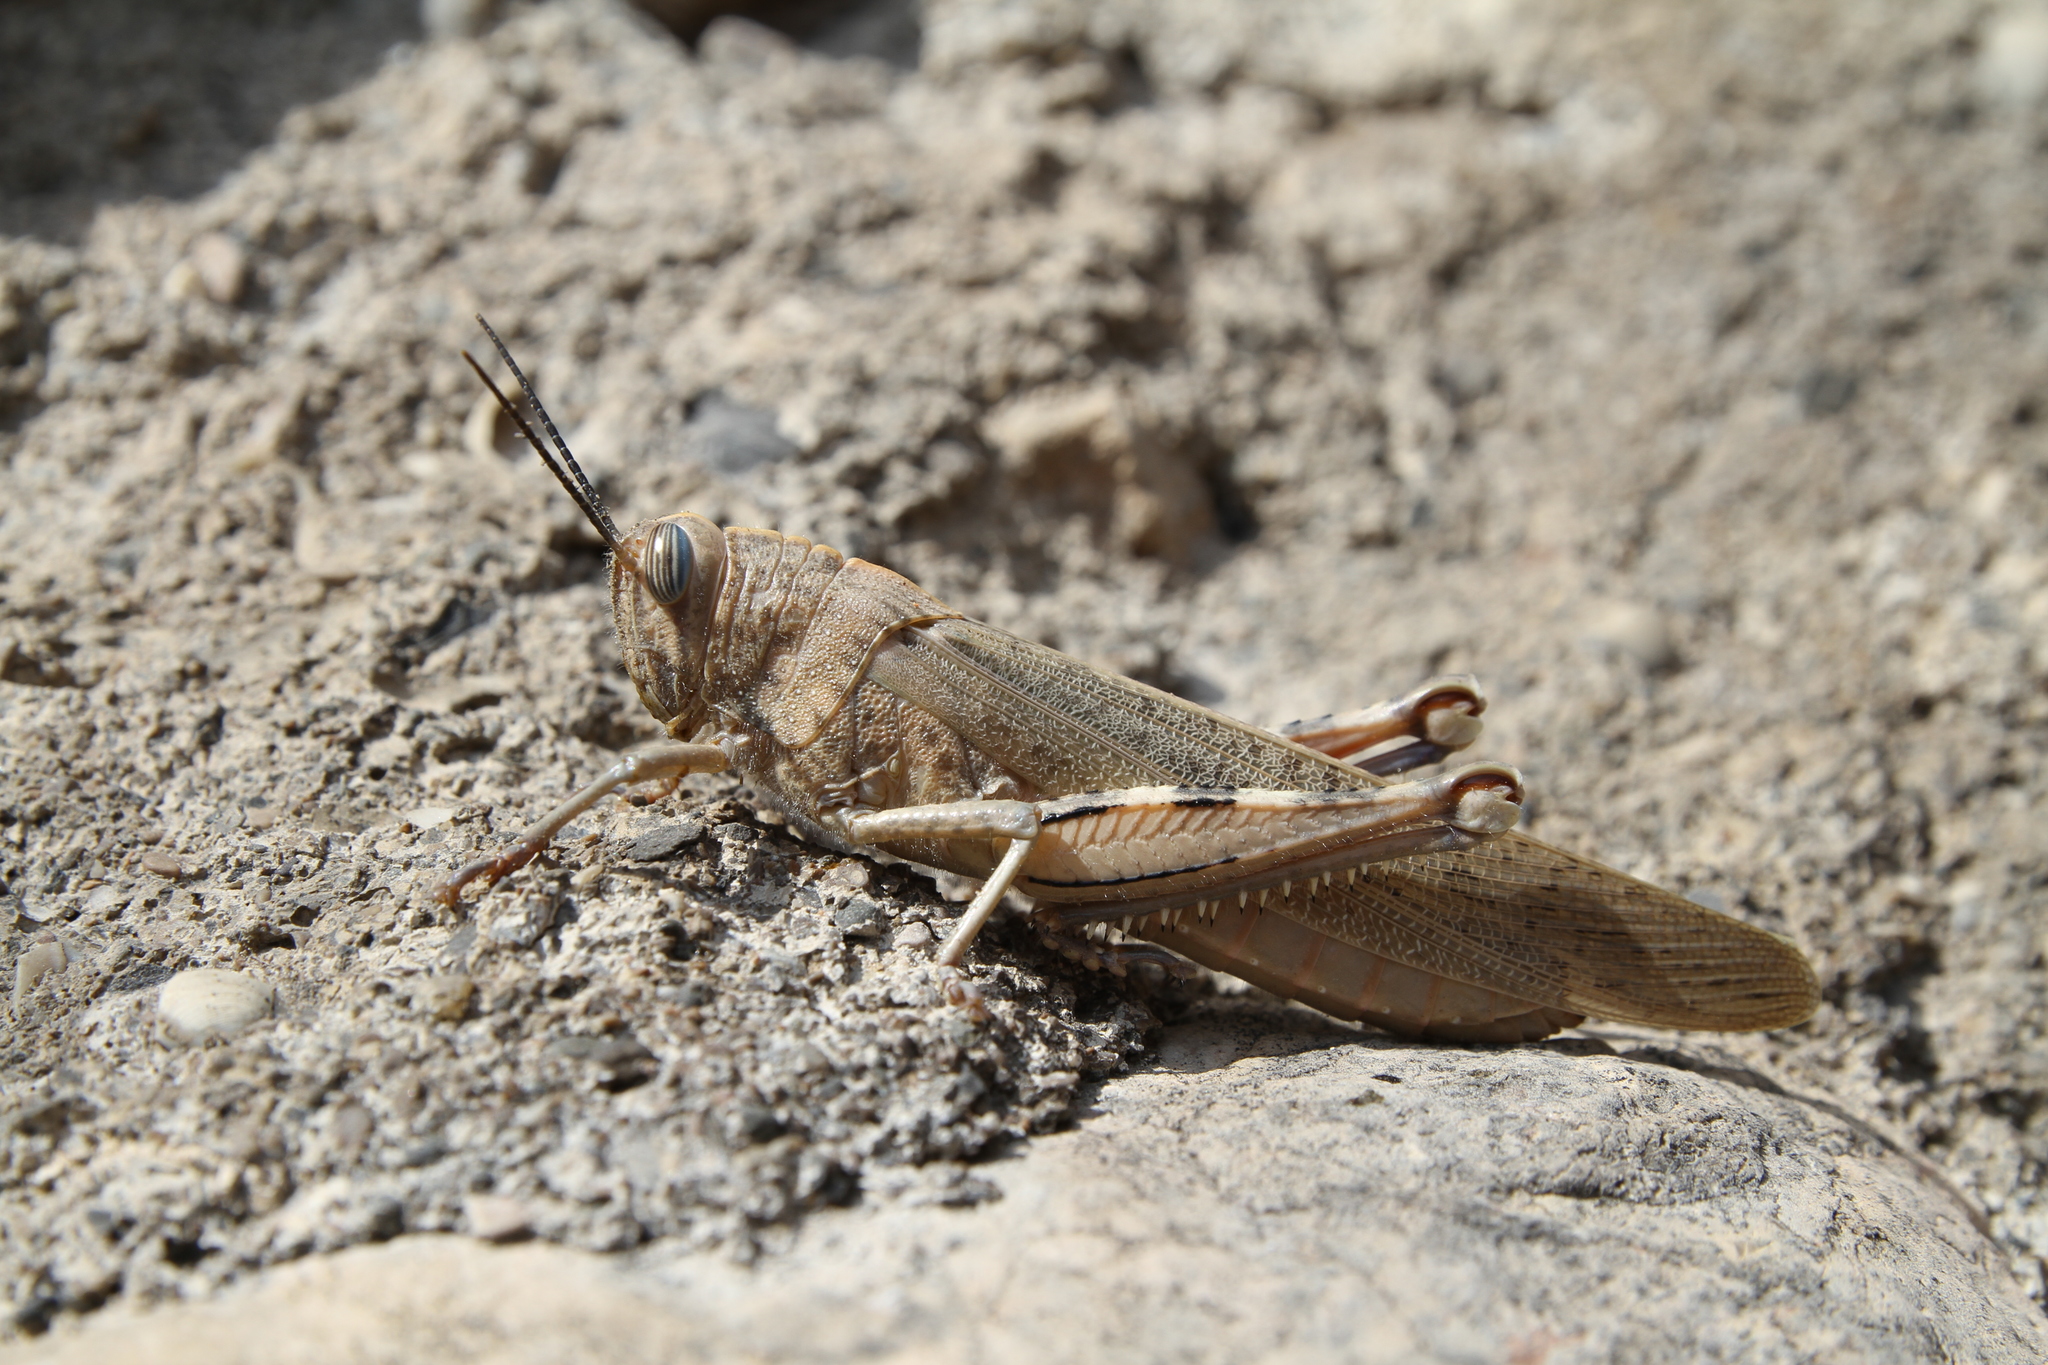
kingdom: Animalia
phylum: Arthropoda
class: Insecta
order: Orthoptera
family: Acrididae
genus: Anacridium
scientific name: Anacridium aegyptium
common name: Egyptian grasshopper
